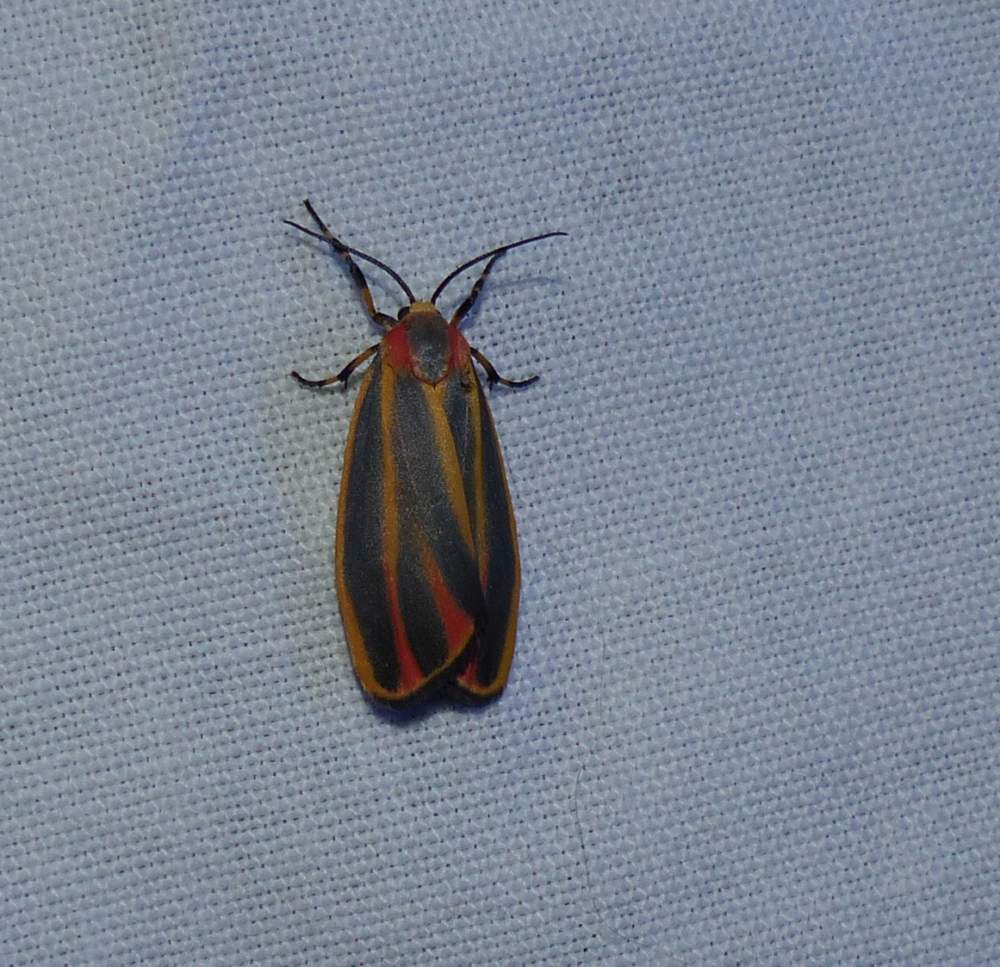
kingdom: Animalia
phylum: Arthropoda
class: Insecta
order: Lepidoptera
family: Erebidae
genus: Hypoprepia
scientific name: Hypoprepia fucosa
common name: Painted lichen moth
